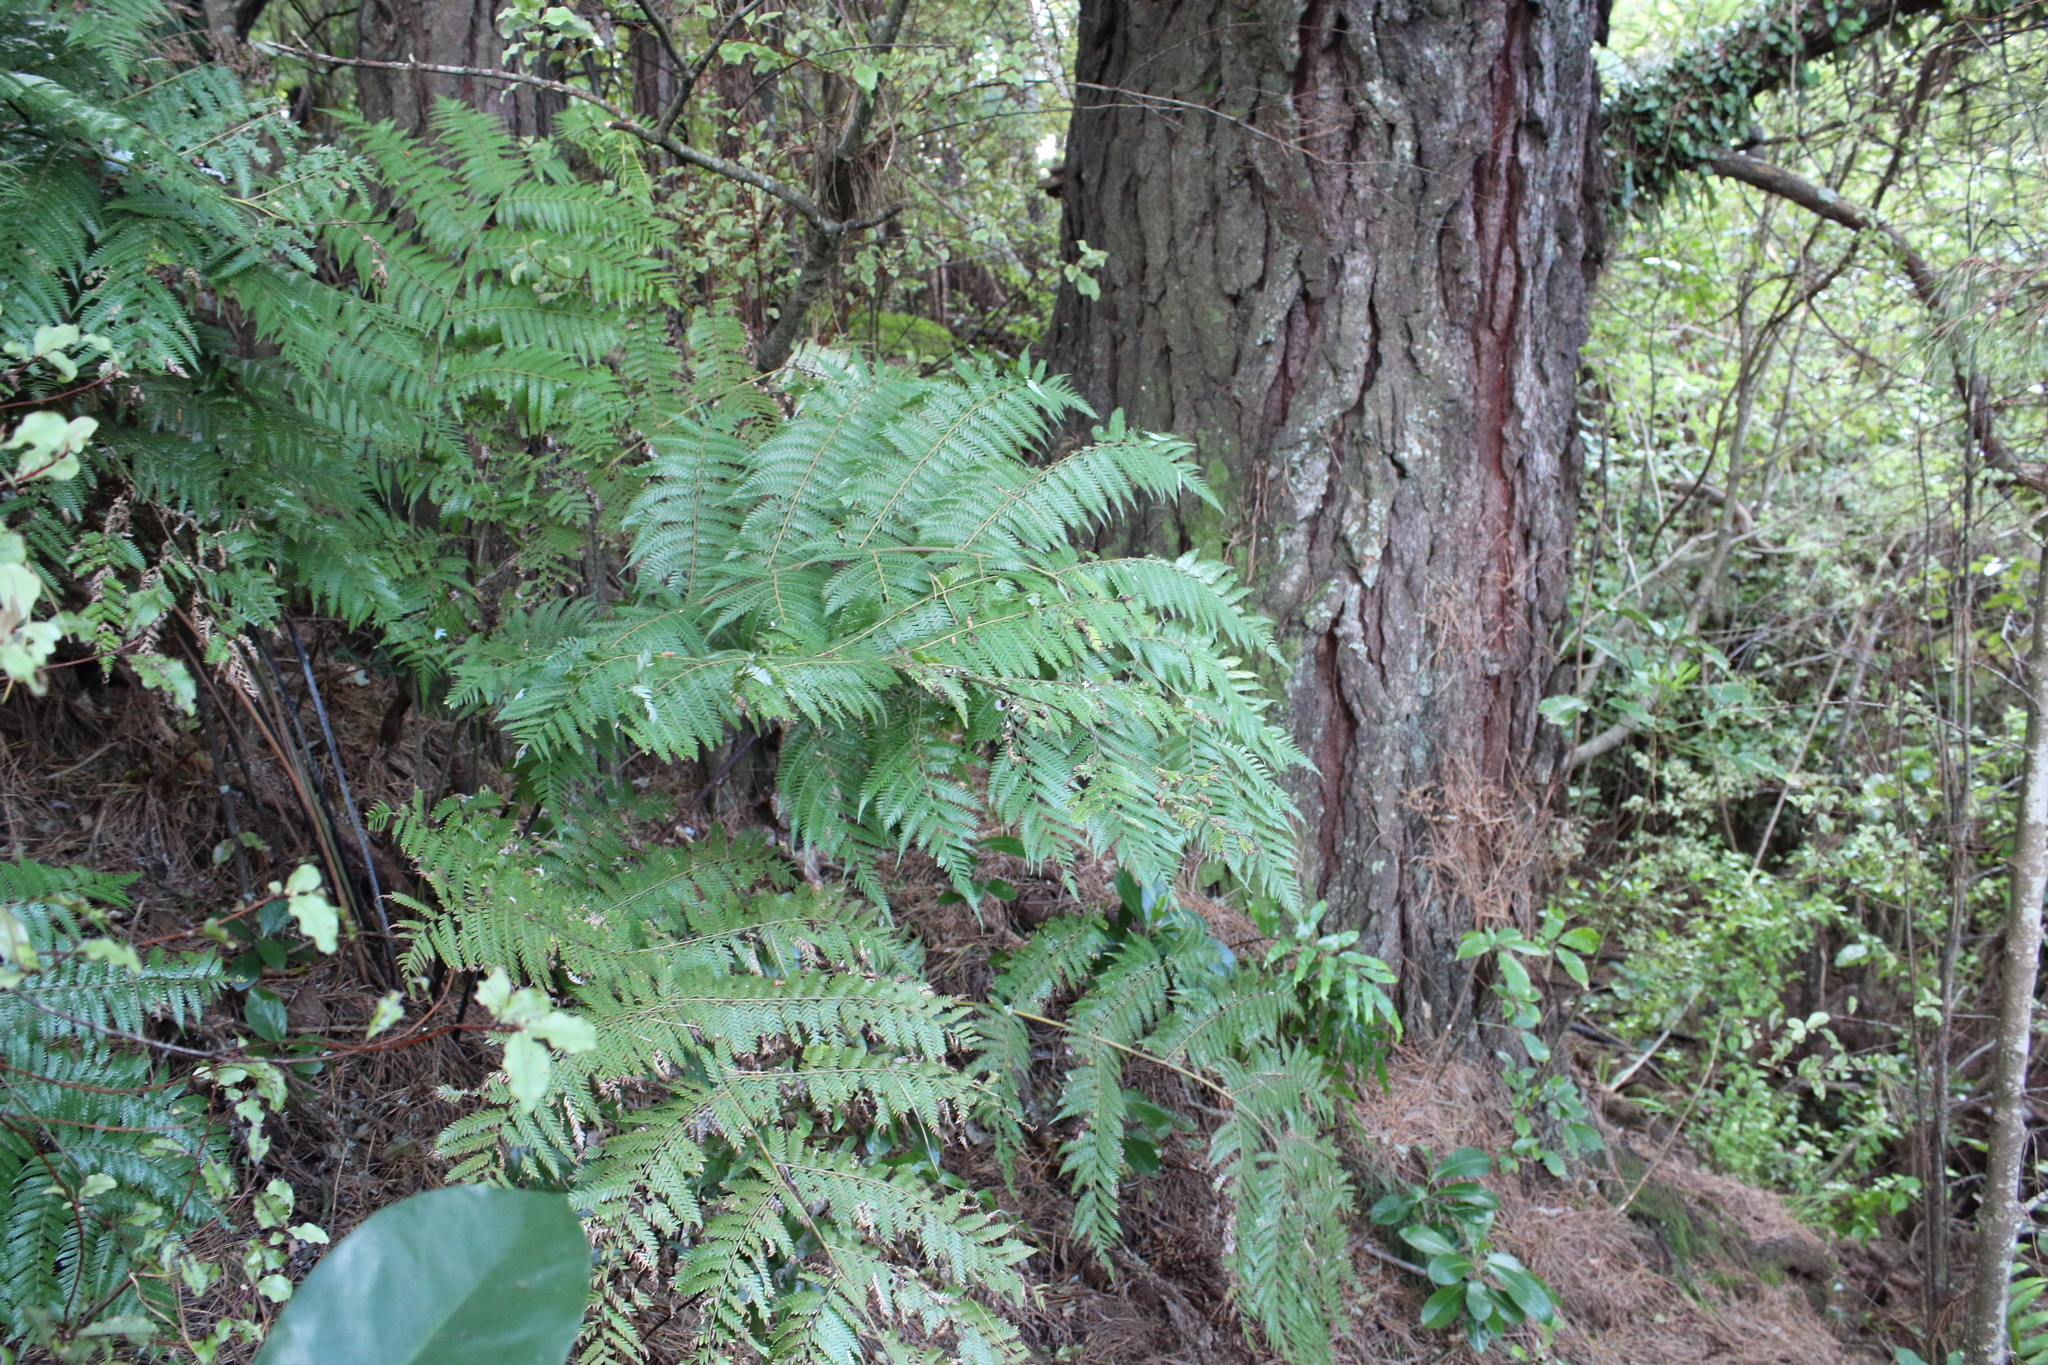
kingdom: Plantae
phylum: Tracheophyta
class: Polypodiopsida
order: Cyatheales
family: Cyatheaceae
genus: Alsophila
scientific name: Alsophila dealbata
